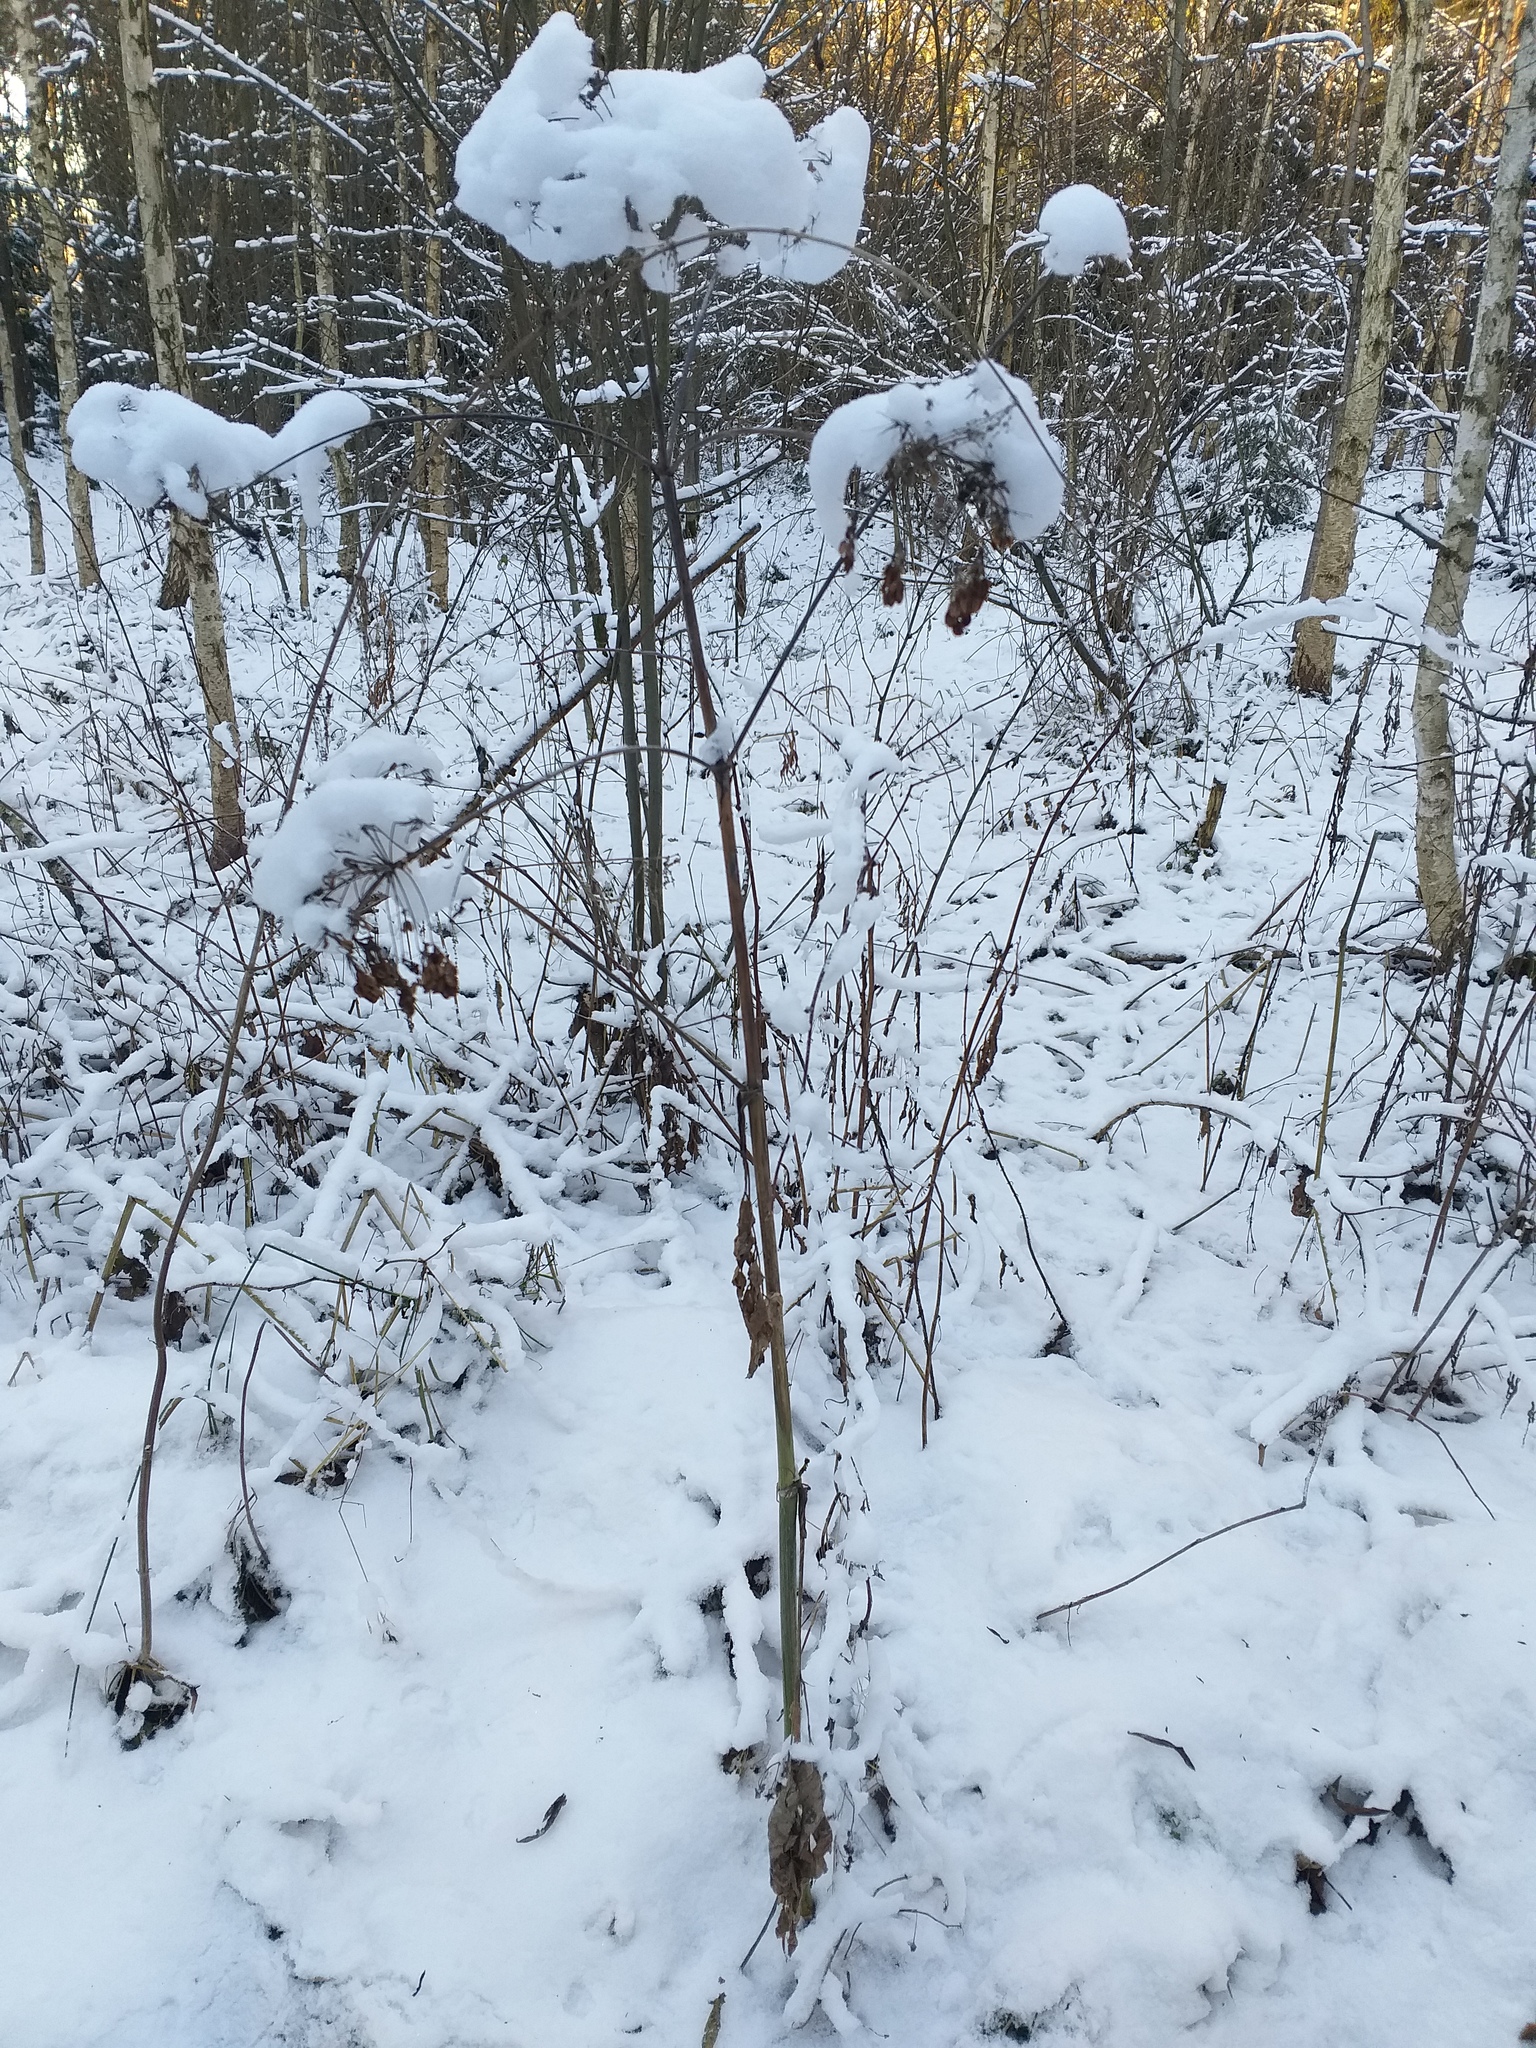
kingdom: Plantae
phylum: Tracheophyta
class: Magnoliopsida
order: Apiales
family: Apiaceae
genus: Angelica
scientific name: Angelica sylvestris
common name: Wild angelica
